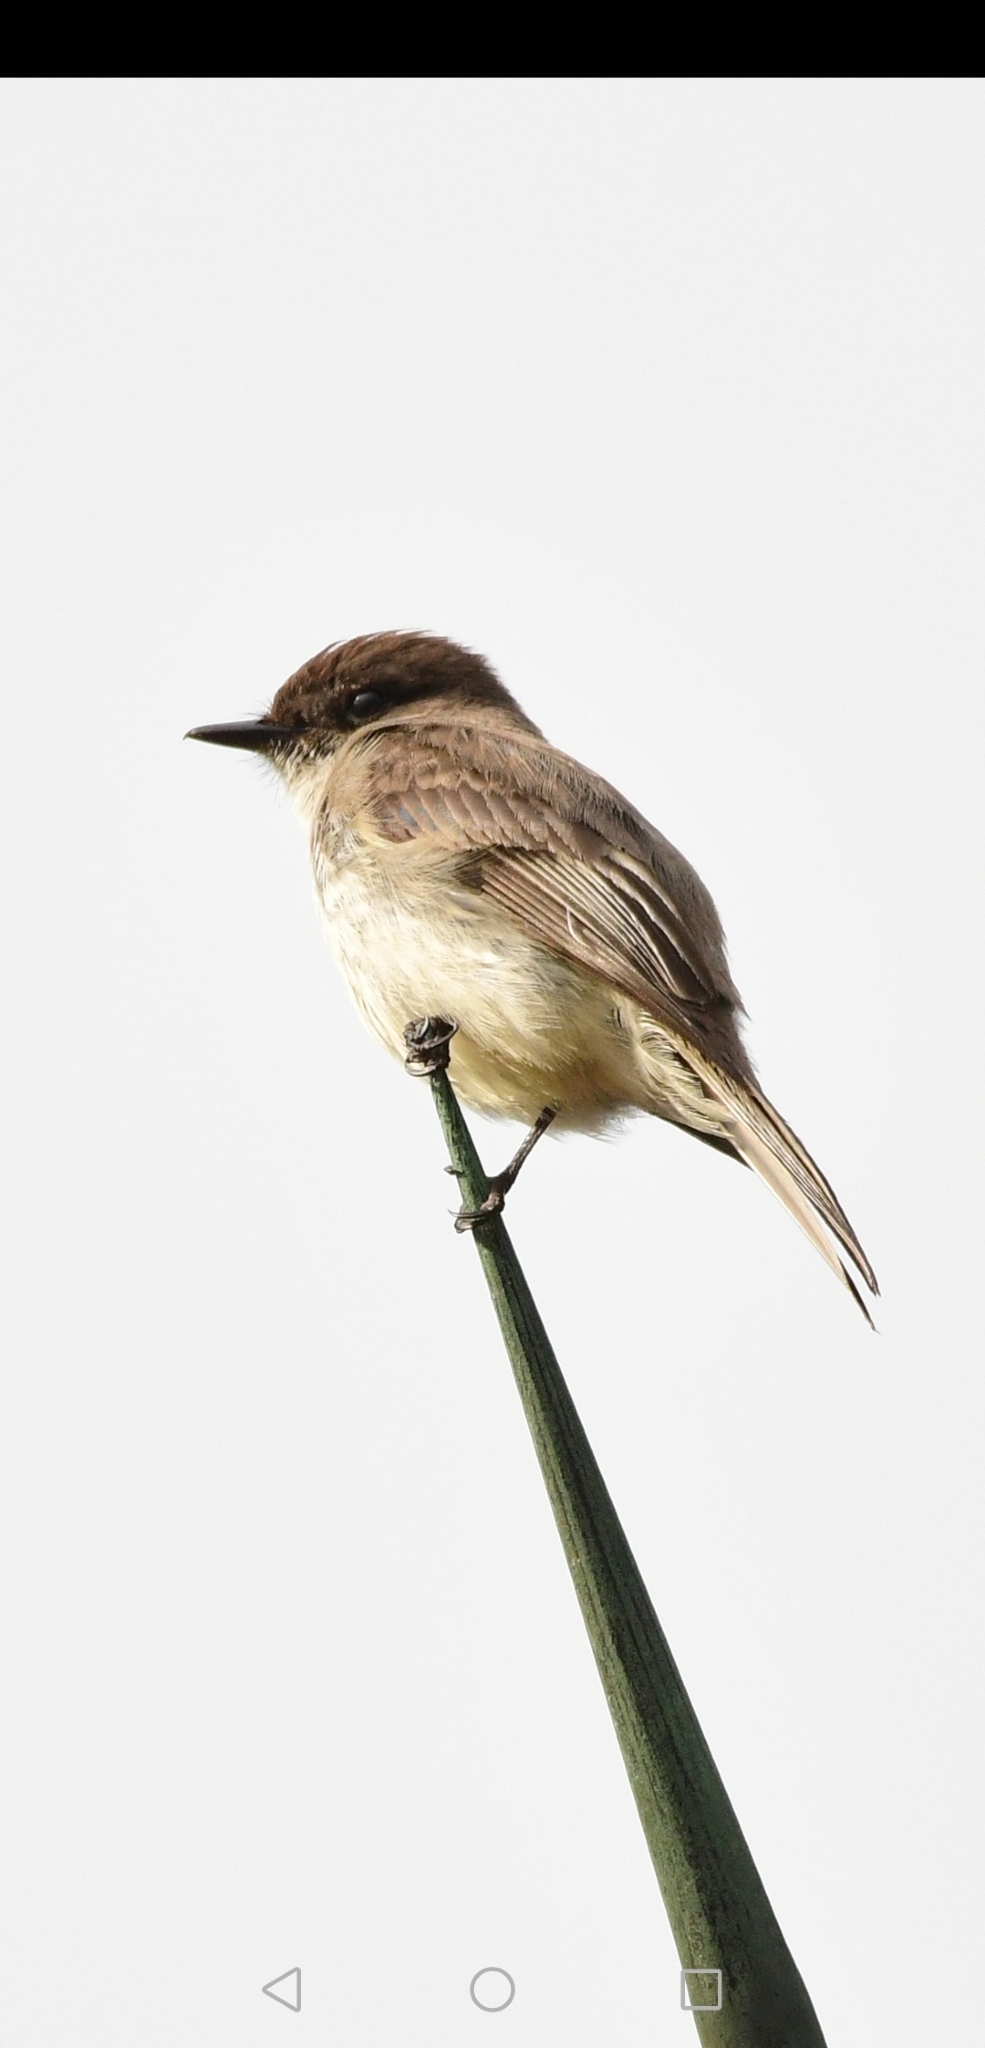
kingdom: Animalia
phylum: Chordata
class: Aves
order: Passeriformes
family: Tyrannidae
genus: Sayornis
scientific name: Sayornis phoebe
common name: Eastern phoebe
